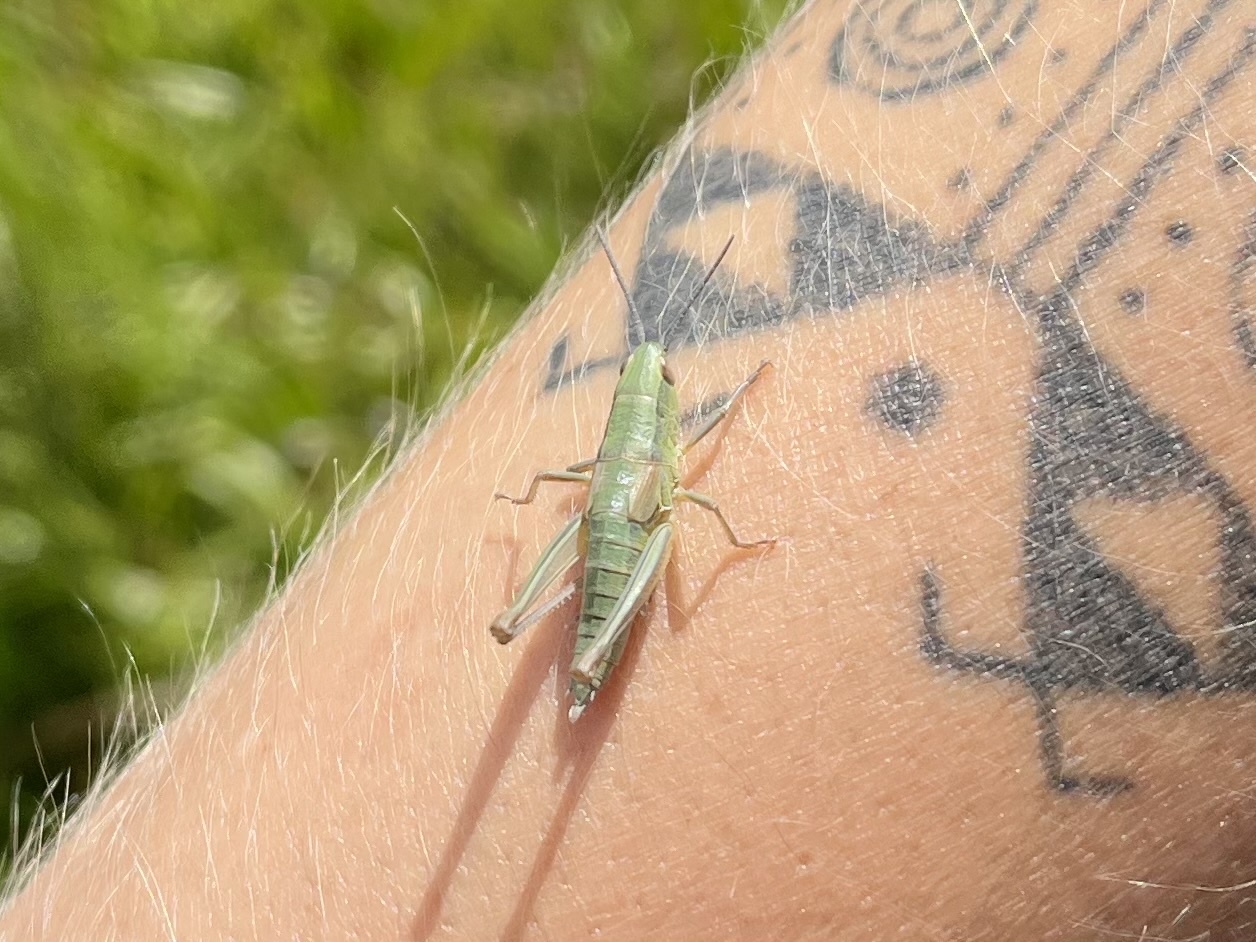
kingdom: Animalia
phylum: Arthropoda
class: Insecta
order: Orthoptera
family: Acrididae
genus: Euthystira
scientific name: Euthystira brachyptera
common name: Small gold grasshopper
